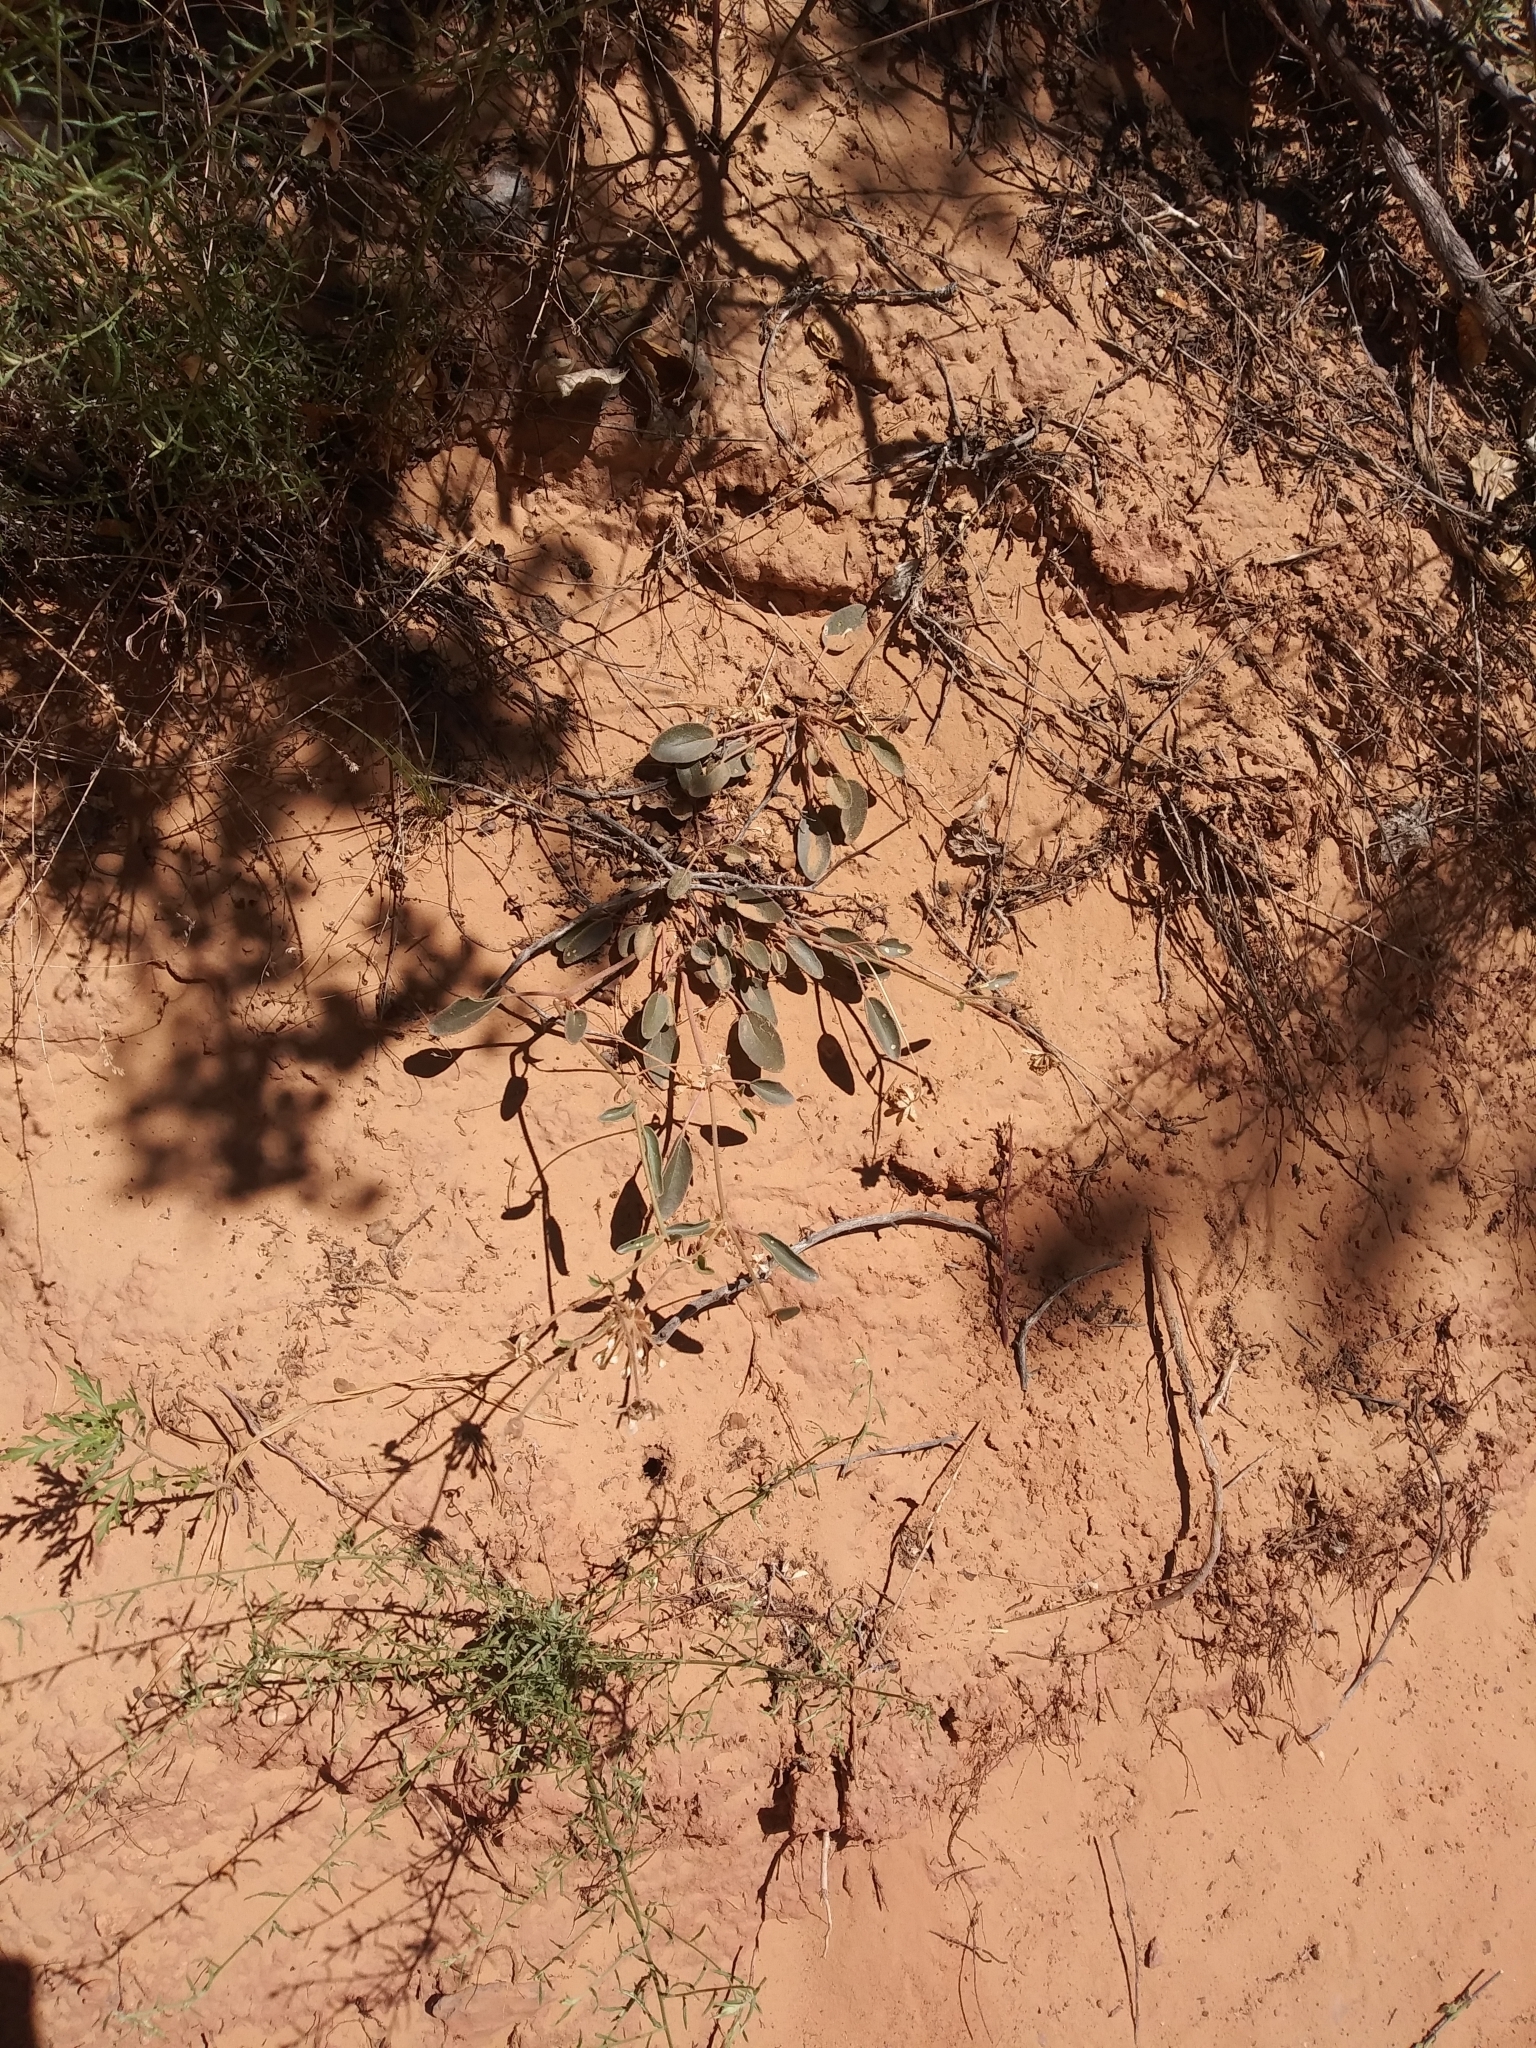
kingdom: Plantae
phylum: Tracheophyta
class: Magnoliopsida
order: Caryophyllales
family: Nyctaginaceae
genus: Abronia
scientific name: Abronia elliptica
